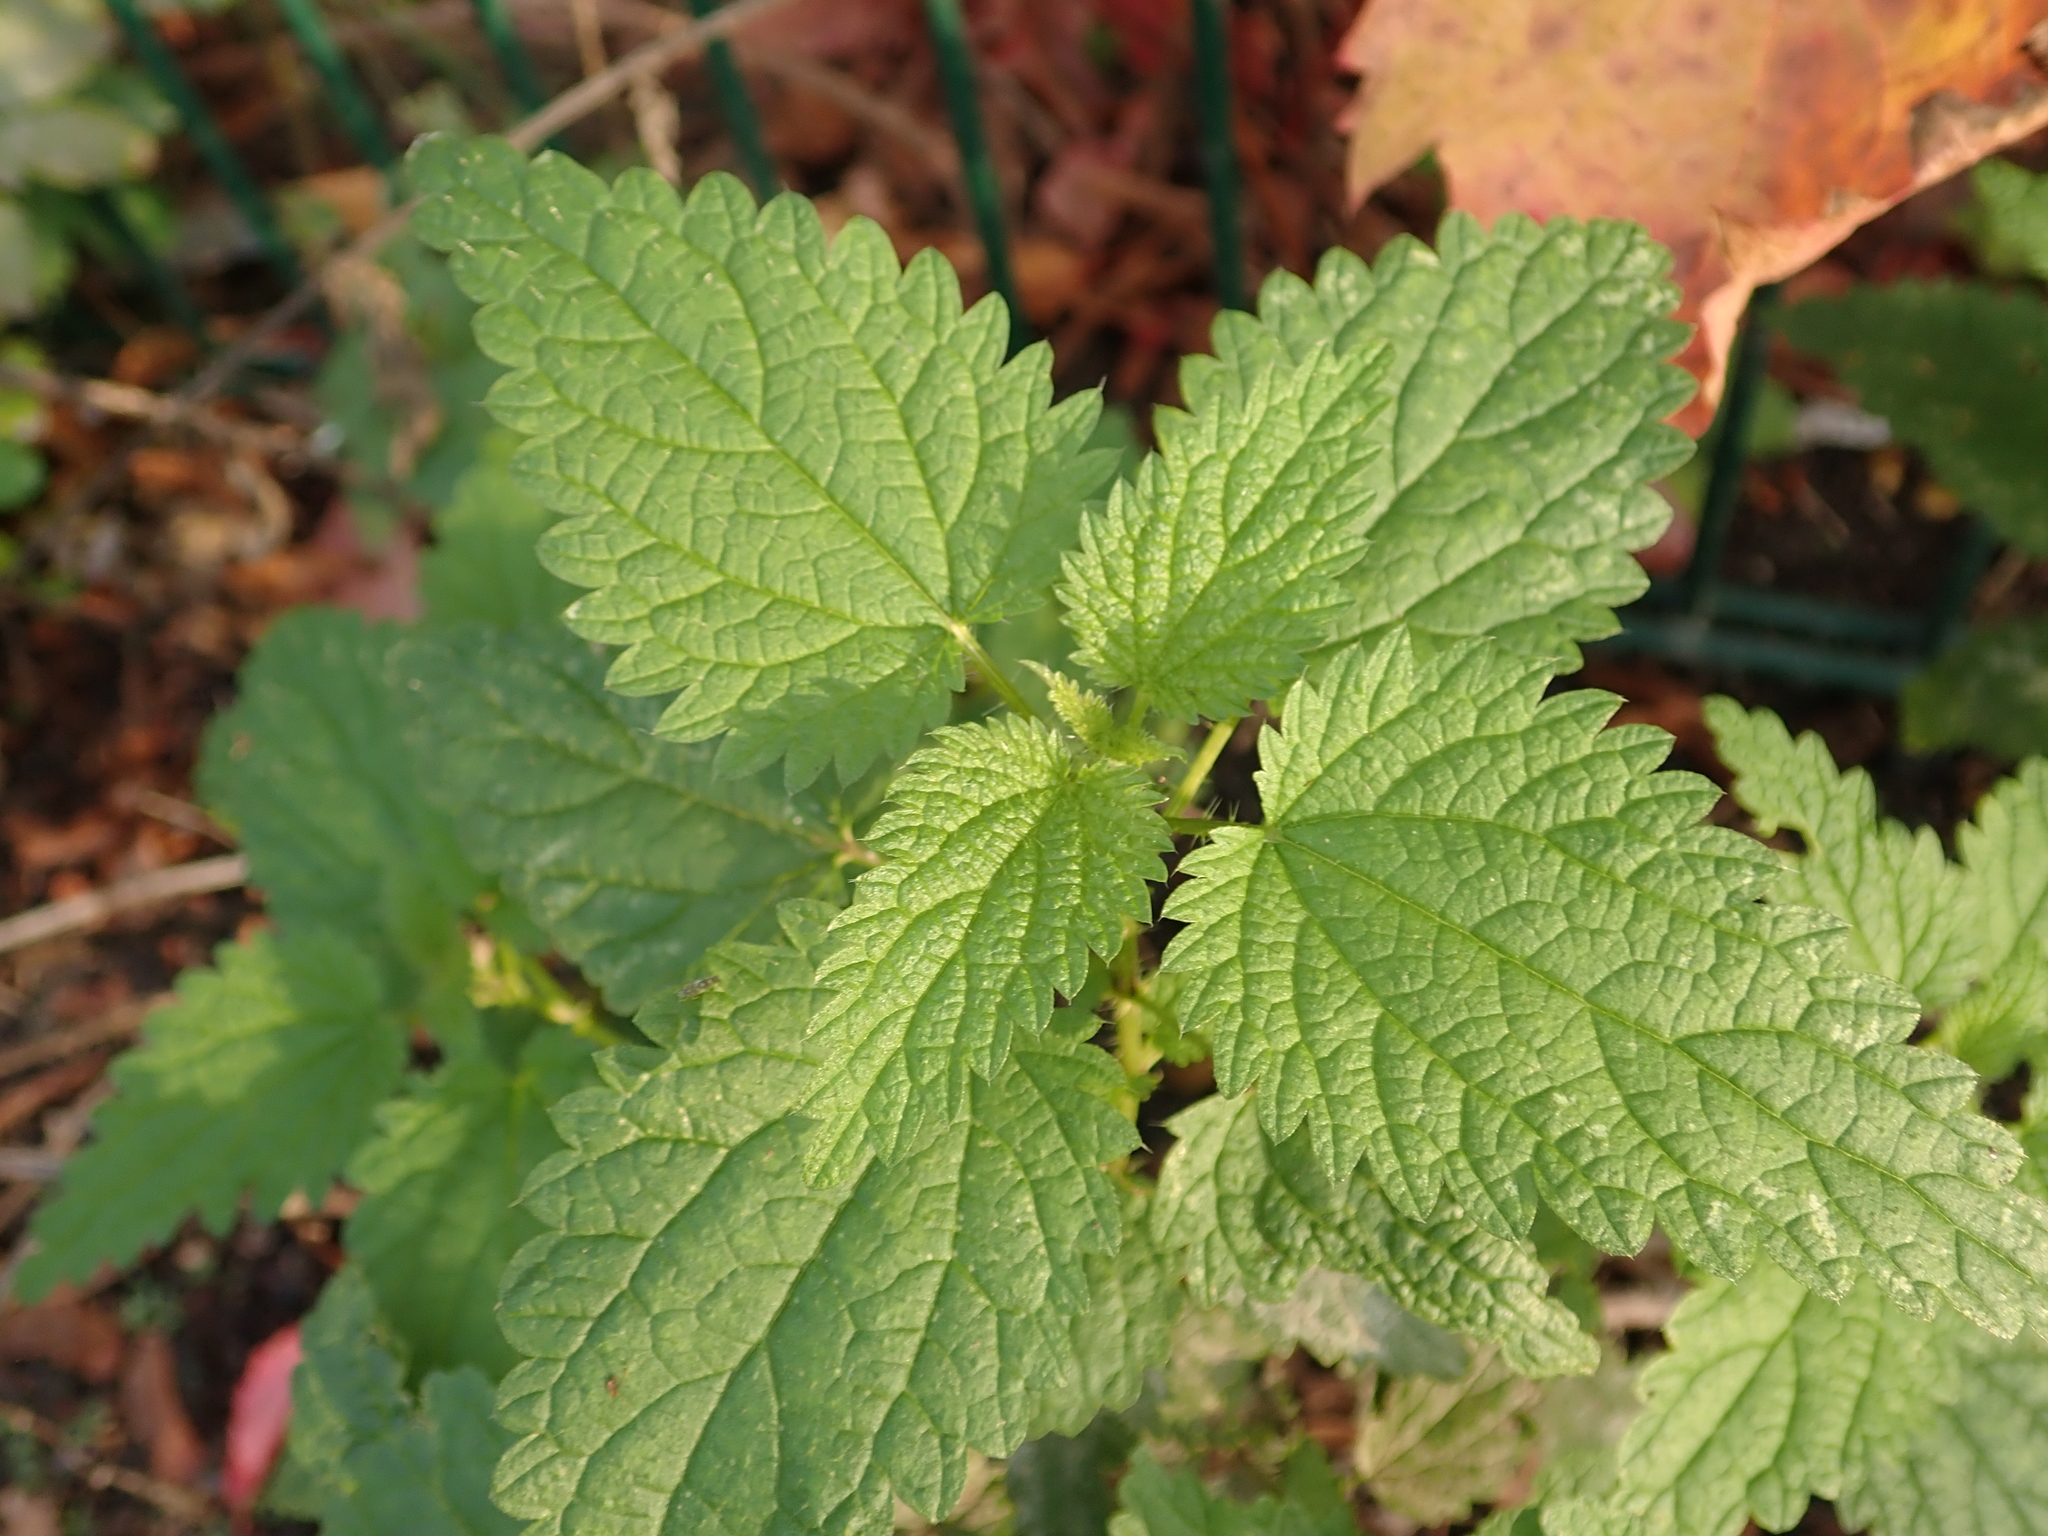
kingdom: Plantae
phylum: Tracheophyta
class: Magnoliopsida
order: Rosales
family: Urticaceae
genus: Urtica
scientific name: Urtica dioica
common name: Common nettle
